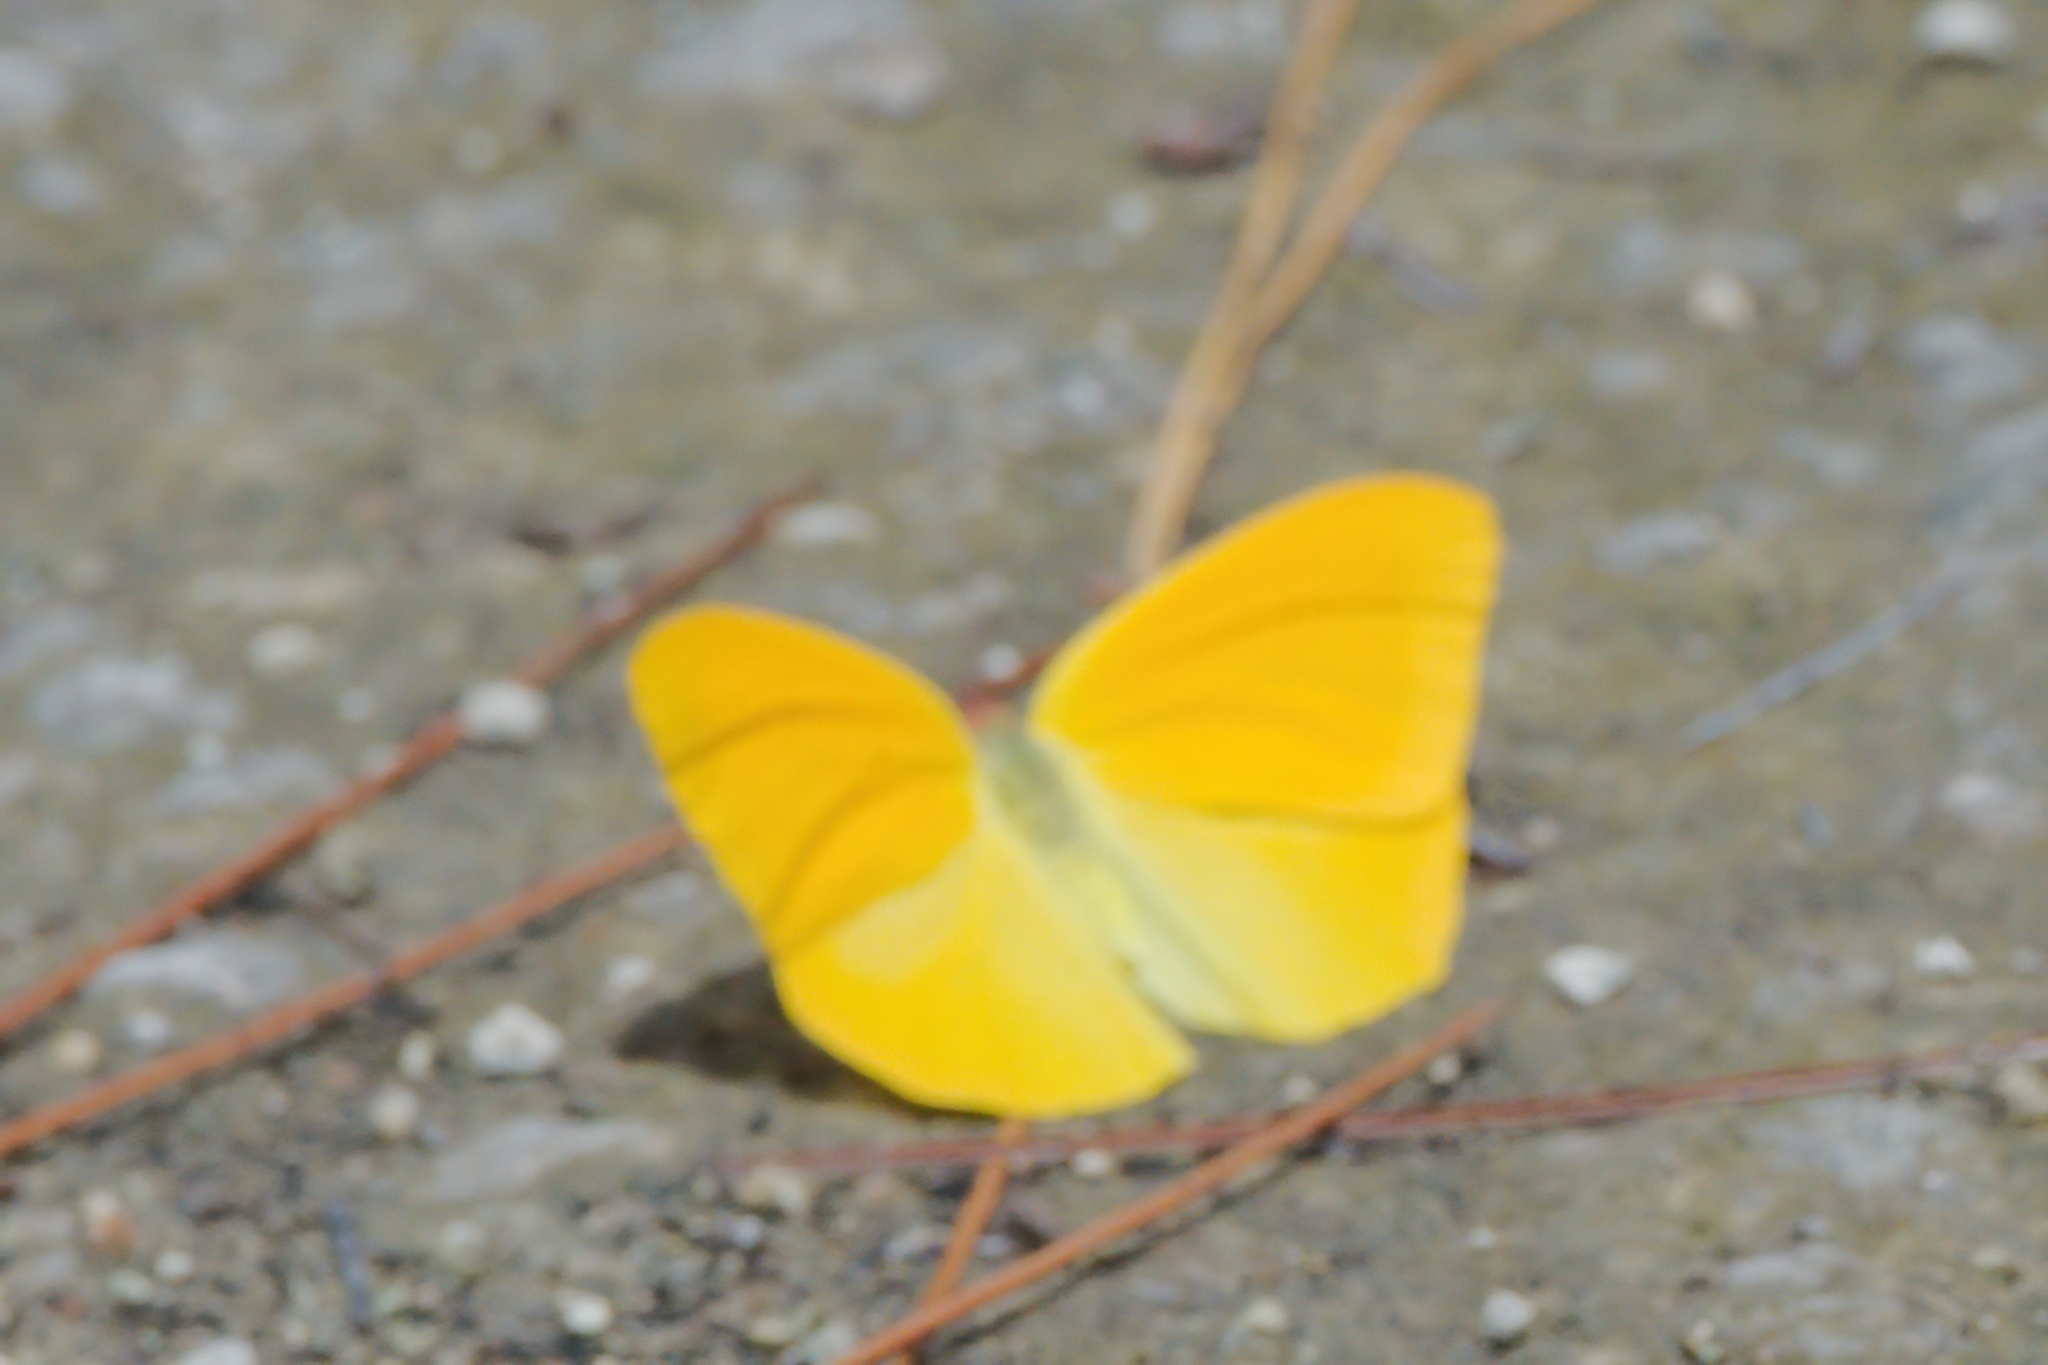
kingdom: Animalia
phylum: Arthropoda
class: Insecta
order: Lepidoptera
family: Pieridae
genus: Phoebis
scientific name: Phoebis agarithe
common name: Large orange sulphur
